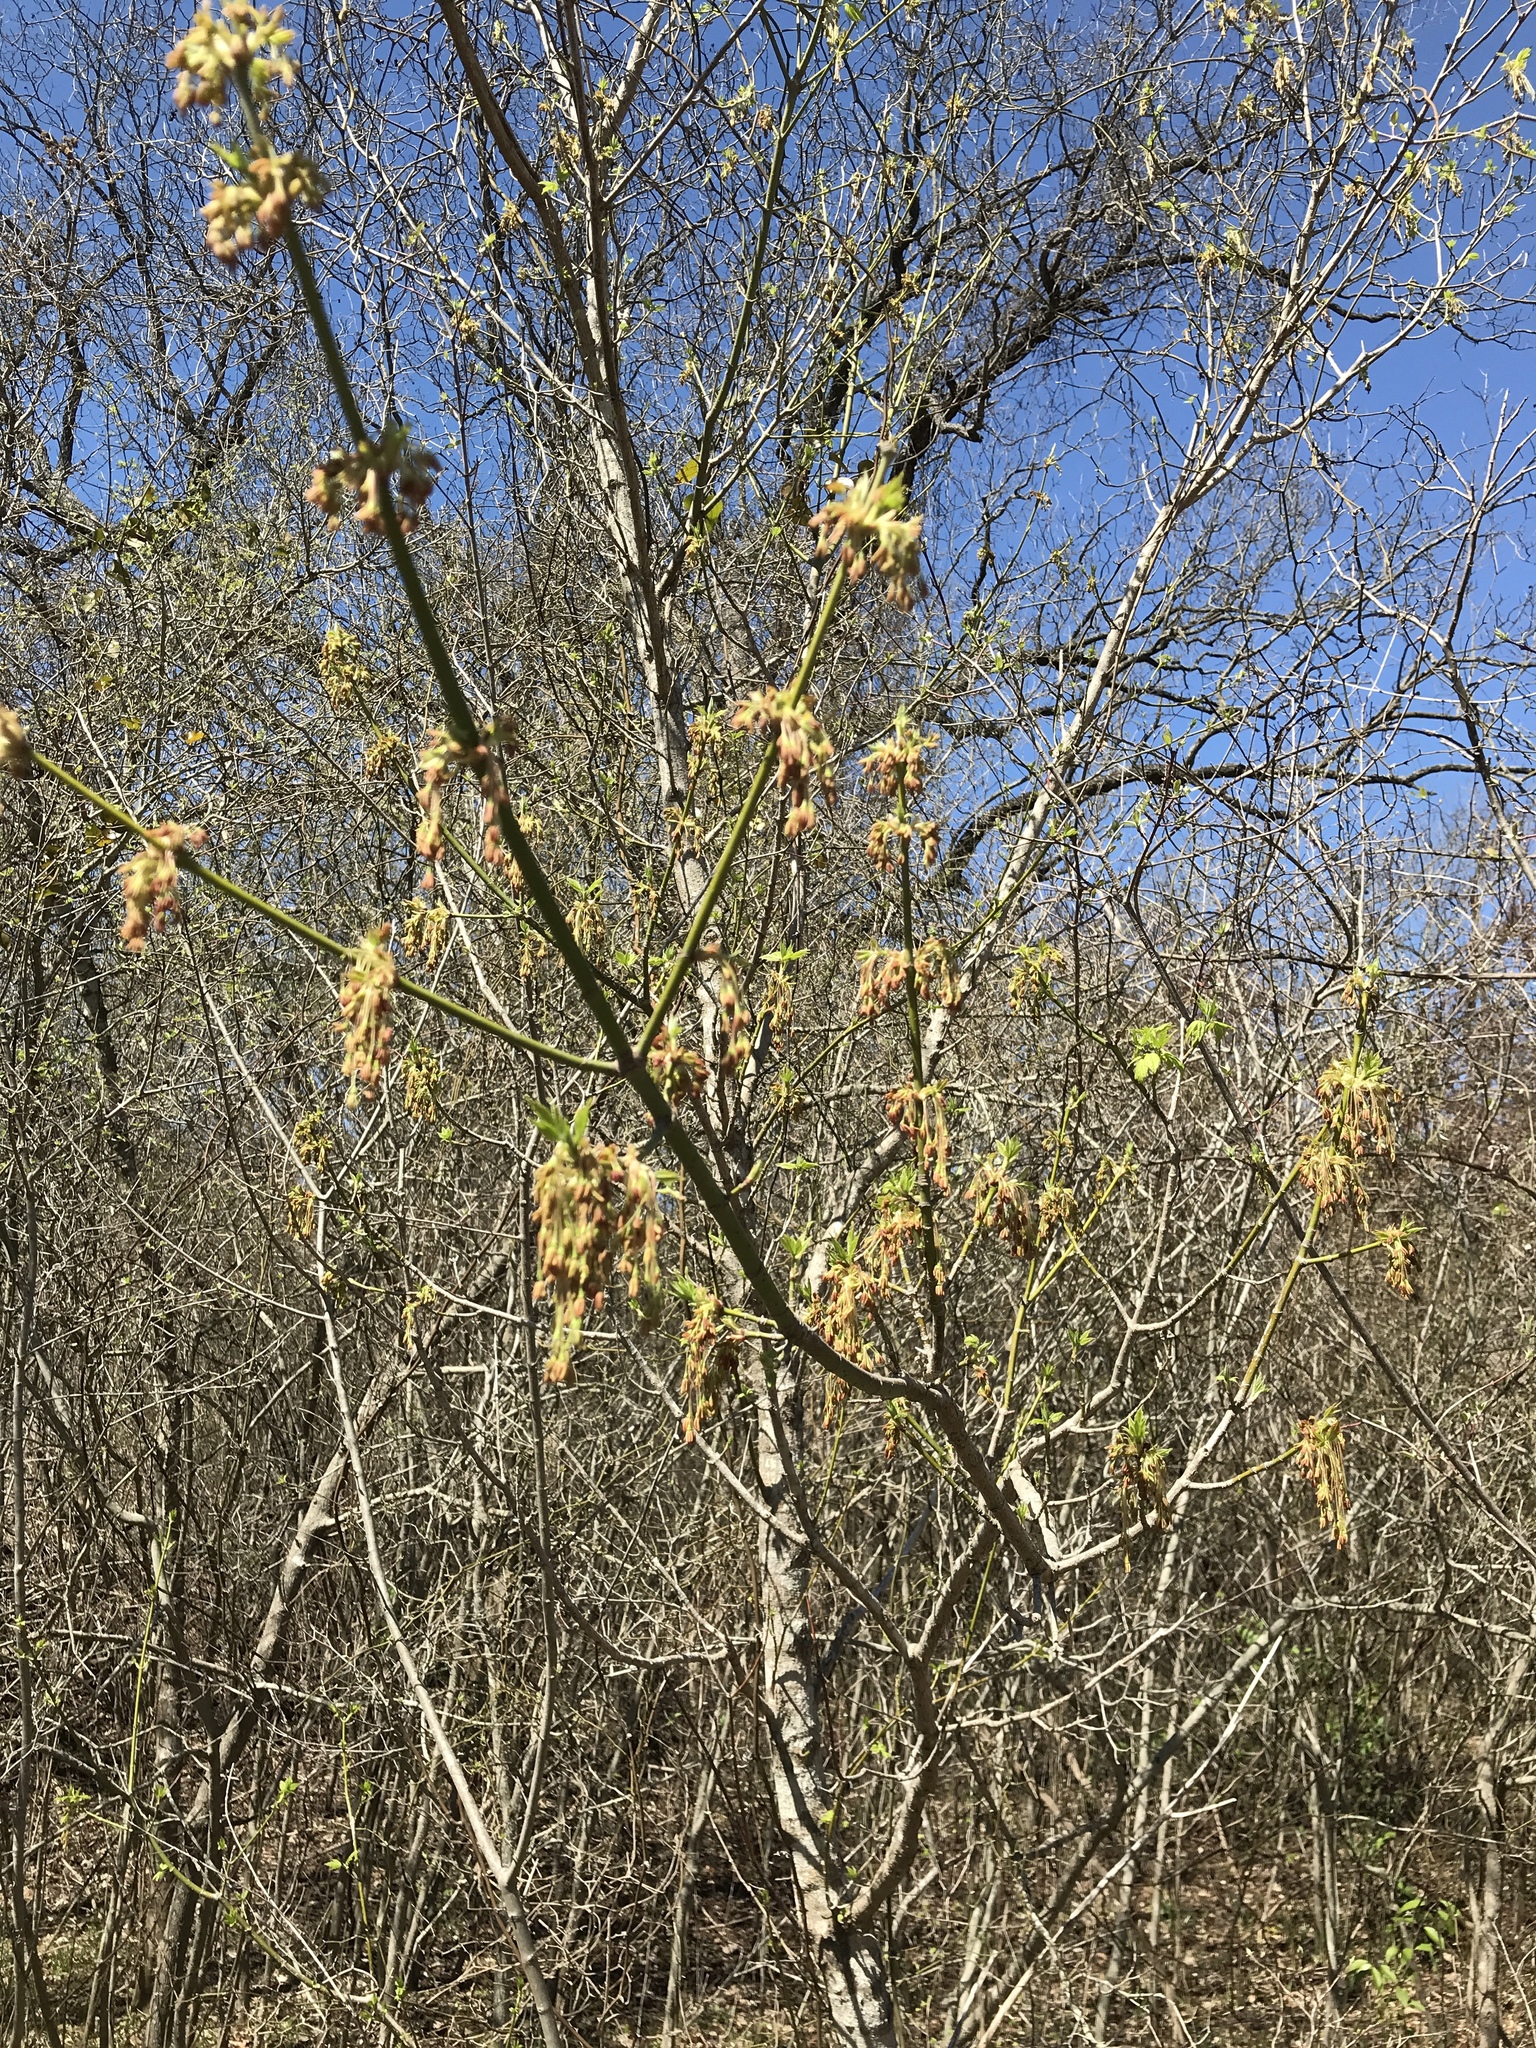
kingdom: Plantae
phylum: Tracheophyta
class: Magnoliopsida
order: Sapindales
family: Sapindaceae
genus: Acer
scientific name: Acer negundo
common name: Ashleaf maple
